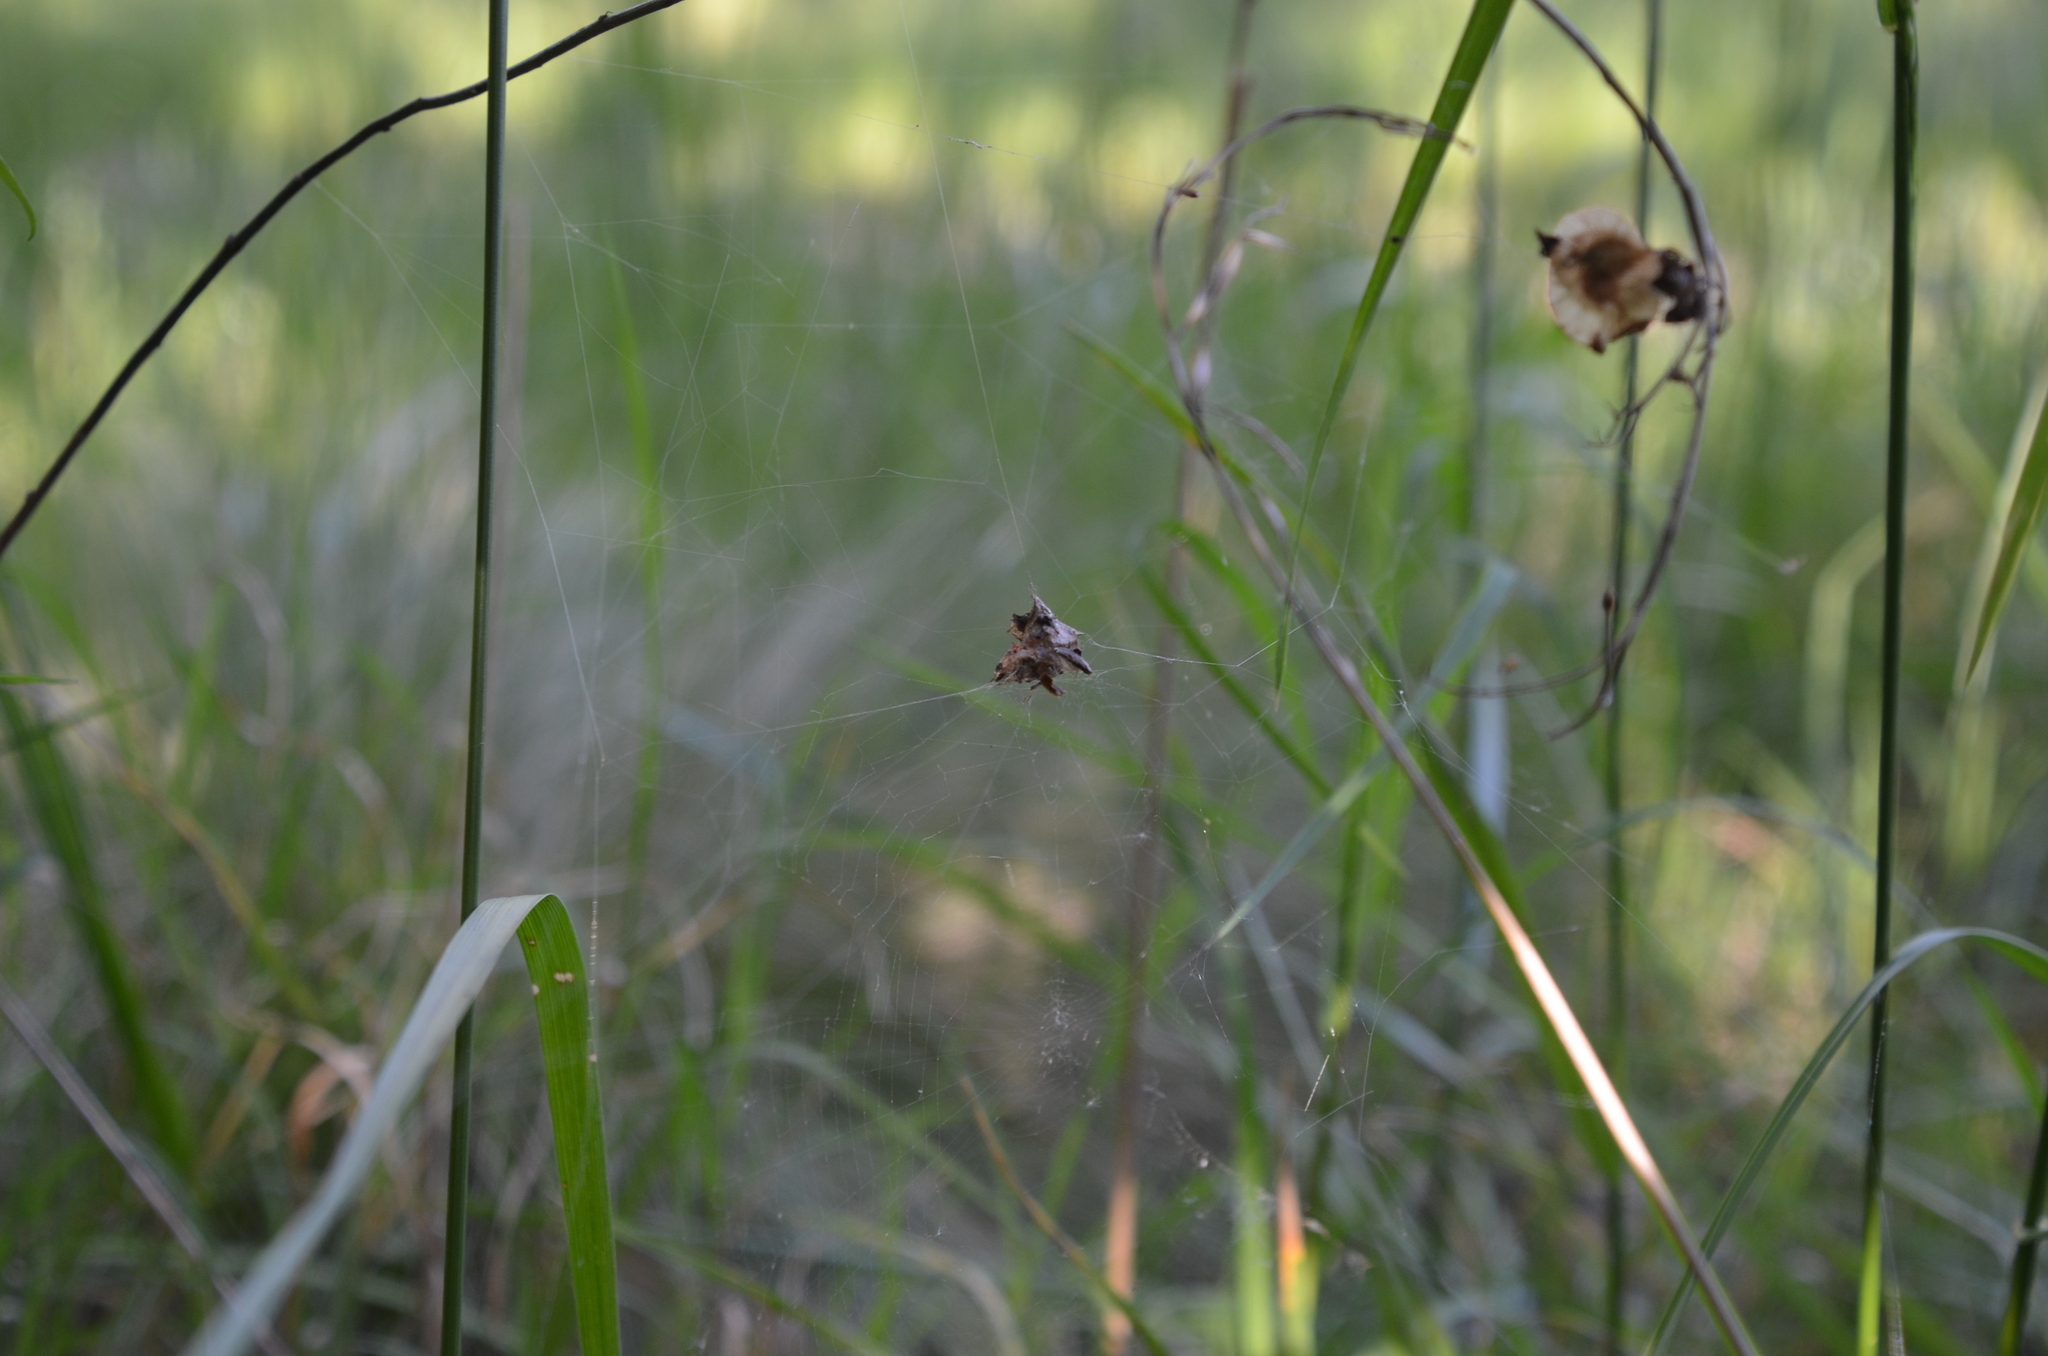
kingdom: Animalia
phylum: Arthropoda
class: Arachnida
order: Araneae
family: Araneidae
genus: Metepeira
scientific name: Metepeira
